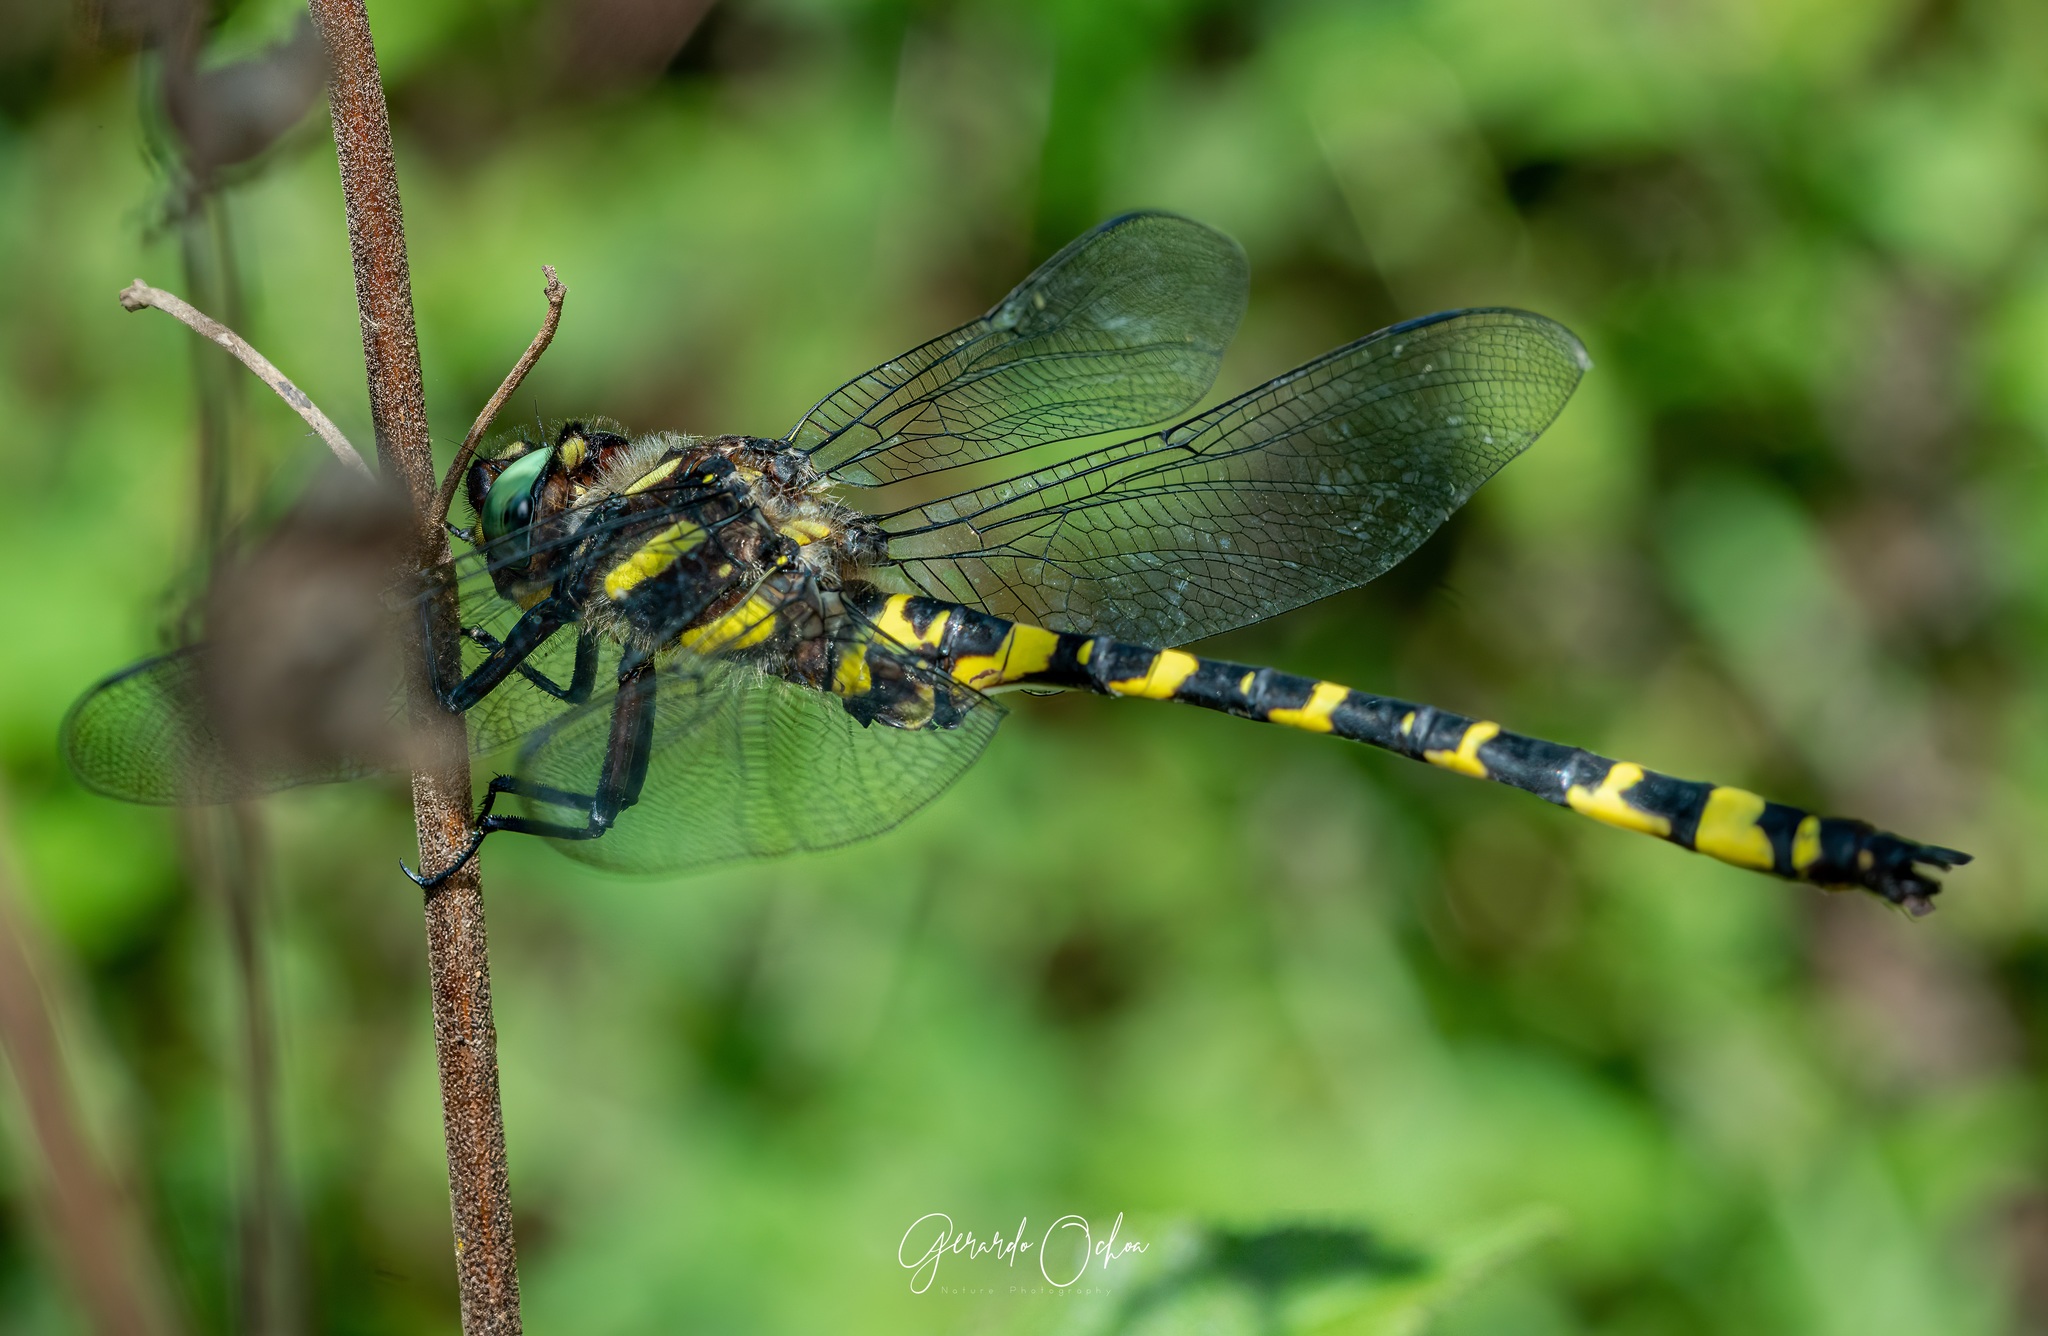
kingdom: Animalia
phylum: Arthropoda
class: Insecta
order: Odonata
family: Cordulegastridae
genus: Cordulegaster
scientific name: Cordulegaster diadema
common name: Apache spiketail
